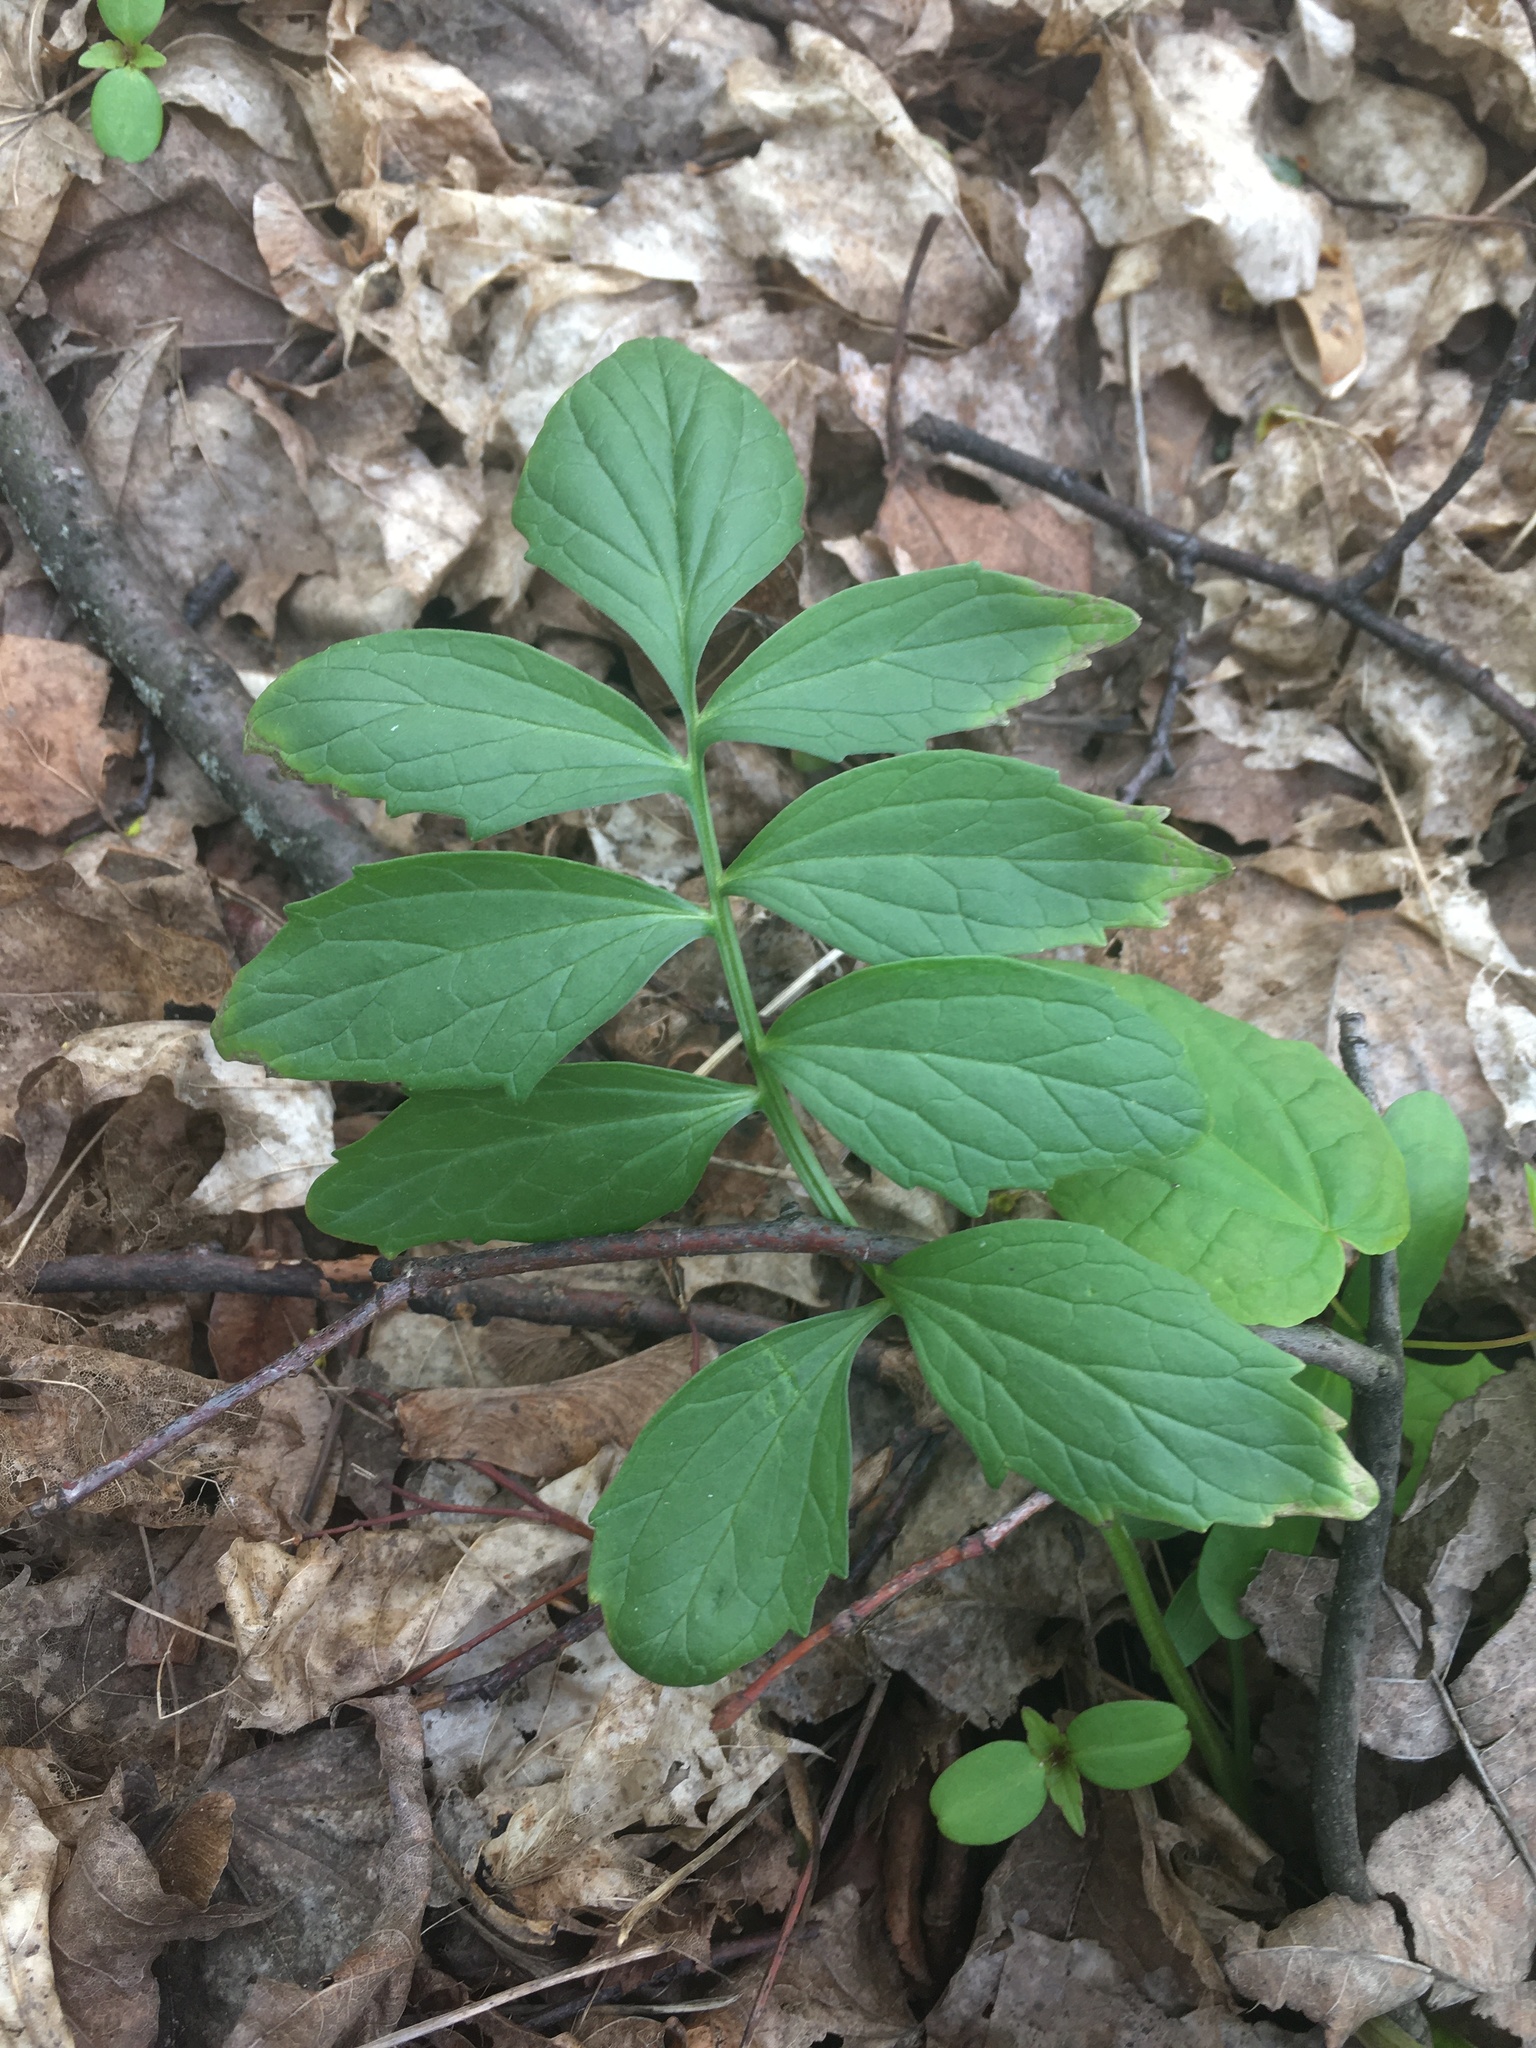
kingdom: Plantae
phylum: Tracheophyta
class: Magnoliopsida
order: Dipsacales
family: Caprifoliaceae
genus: Valeriana
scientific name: Valeriana officinalis
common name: Common valerian
